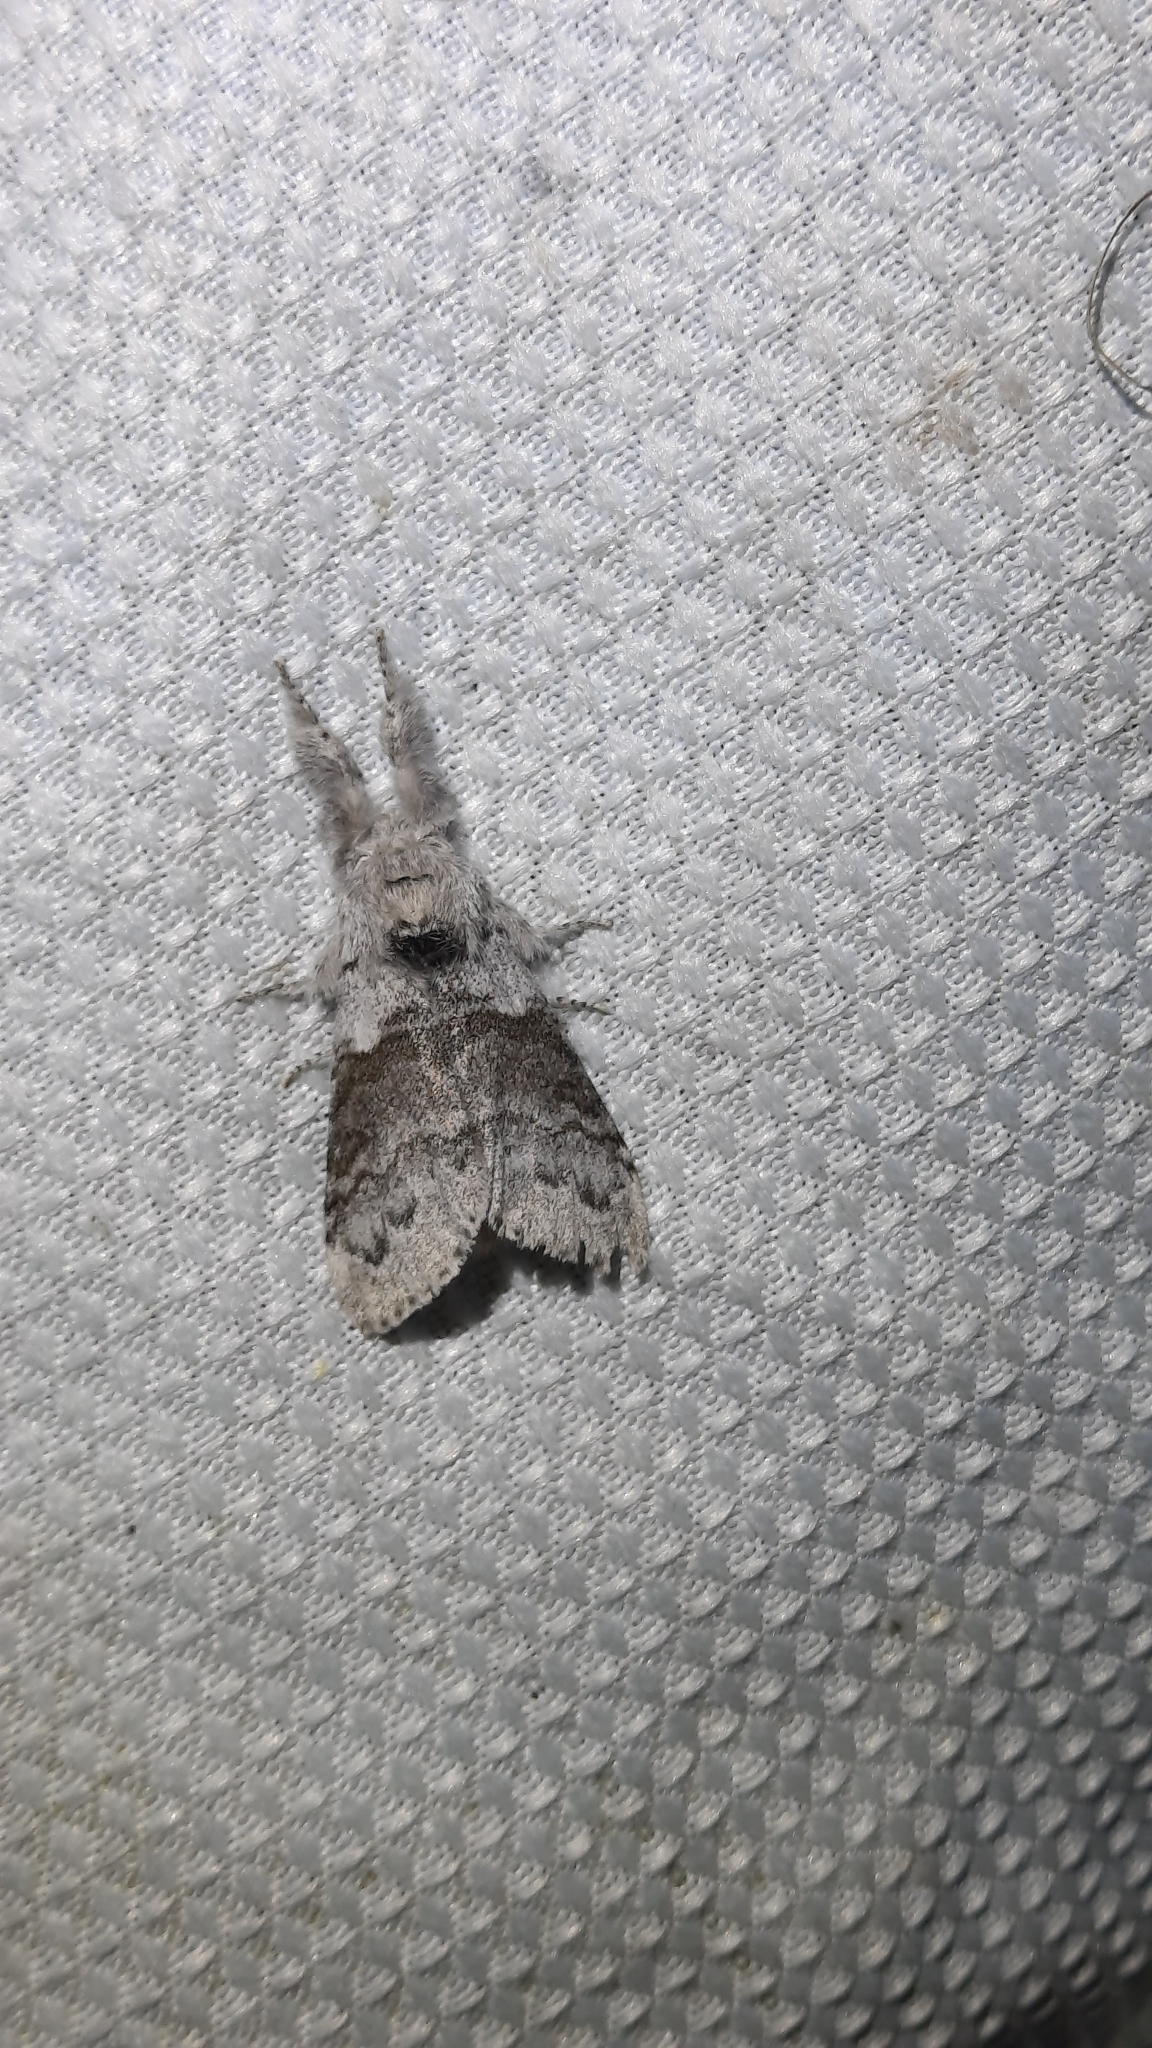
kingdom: Animalia
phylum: Arthropoda
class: Insecta
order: Lepidoptera
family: Erebidae
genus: Calliteara
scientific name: Calliteara pudibunda
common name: Pale tussock
